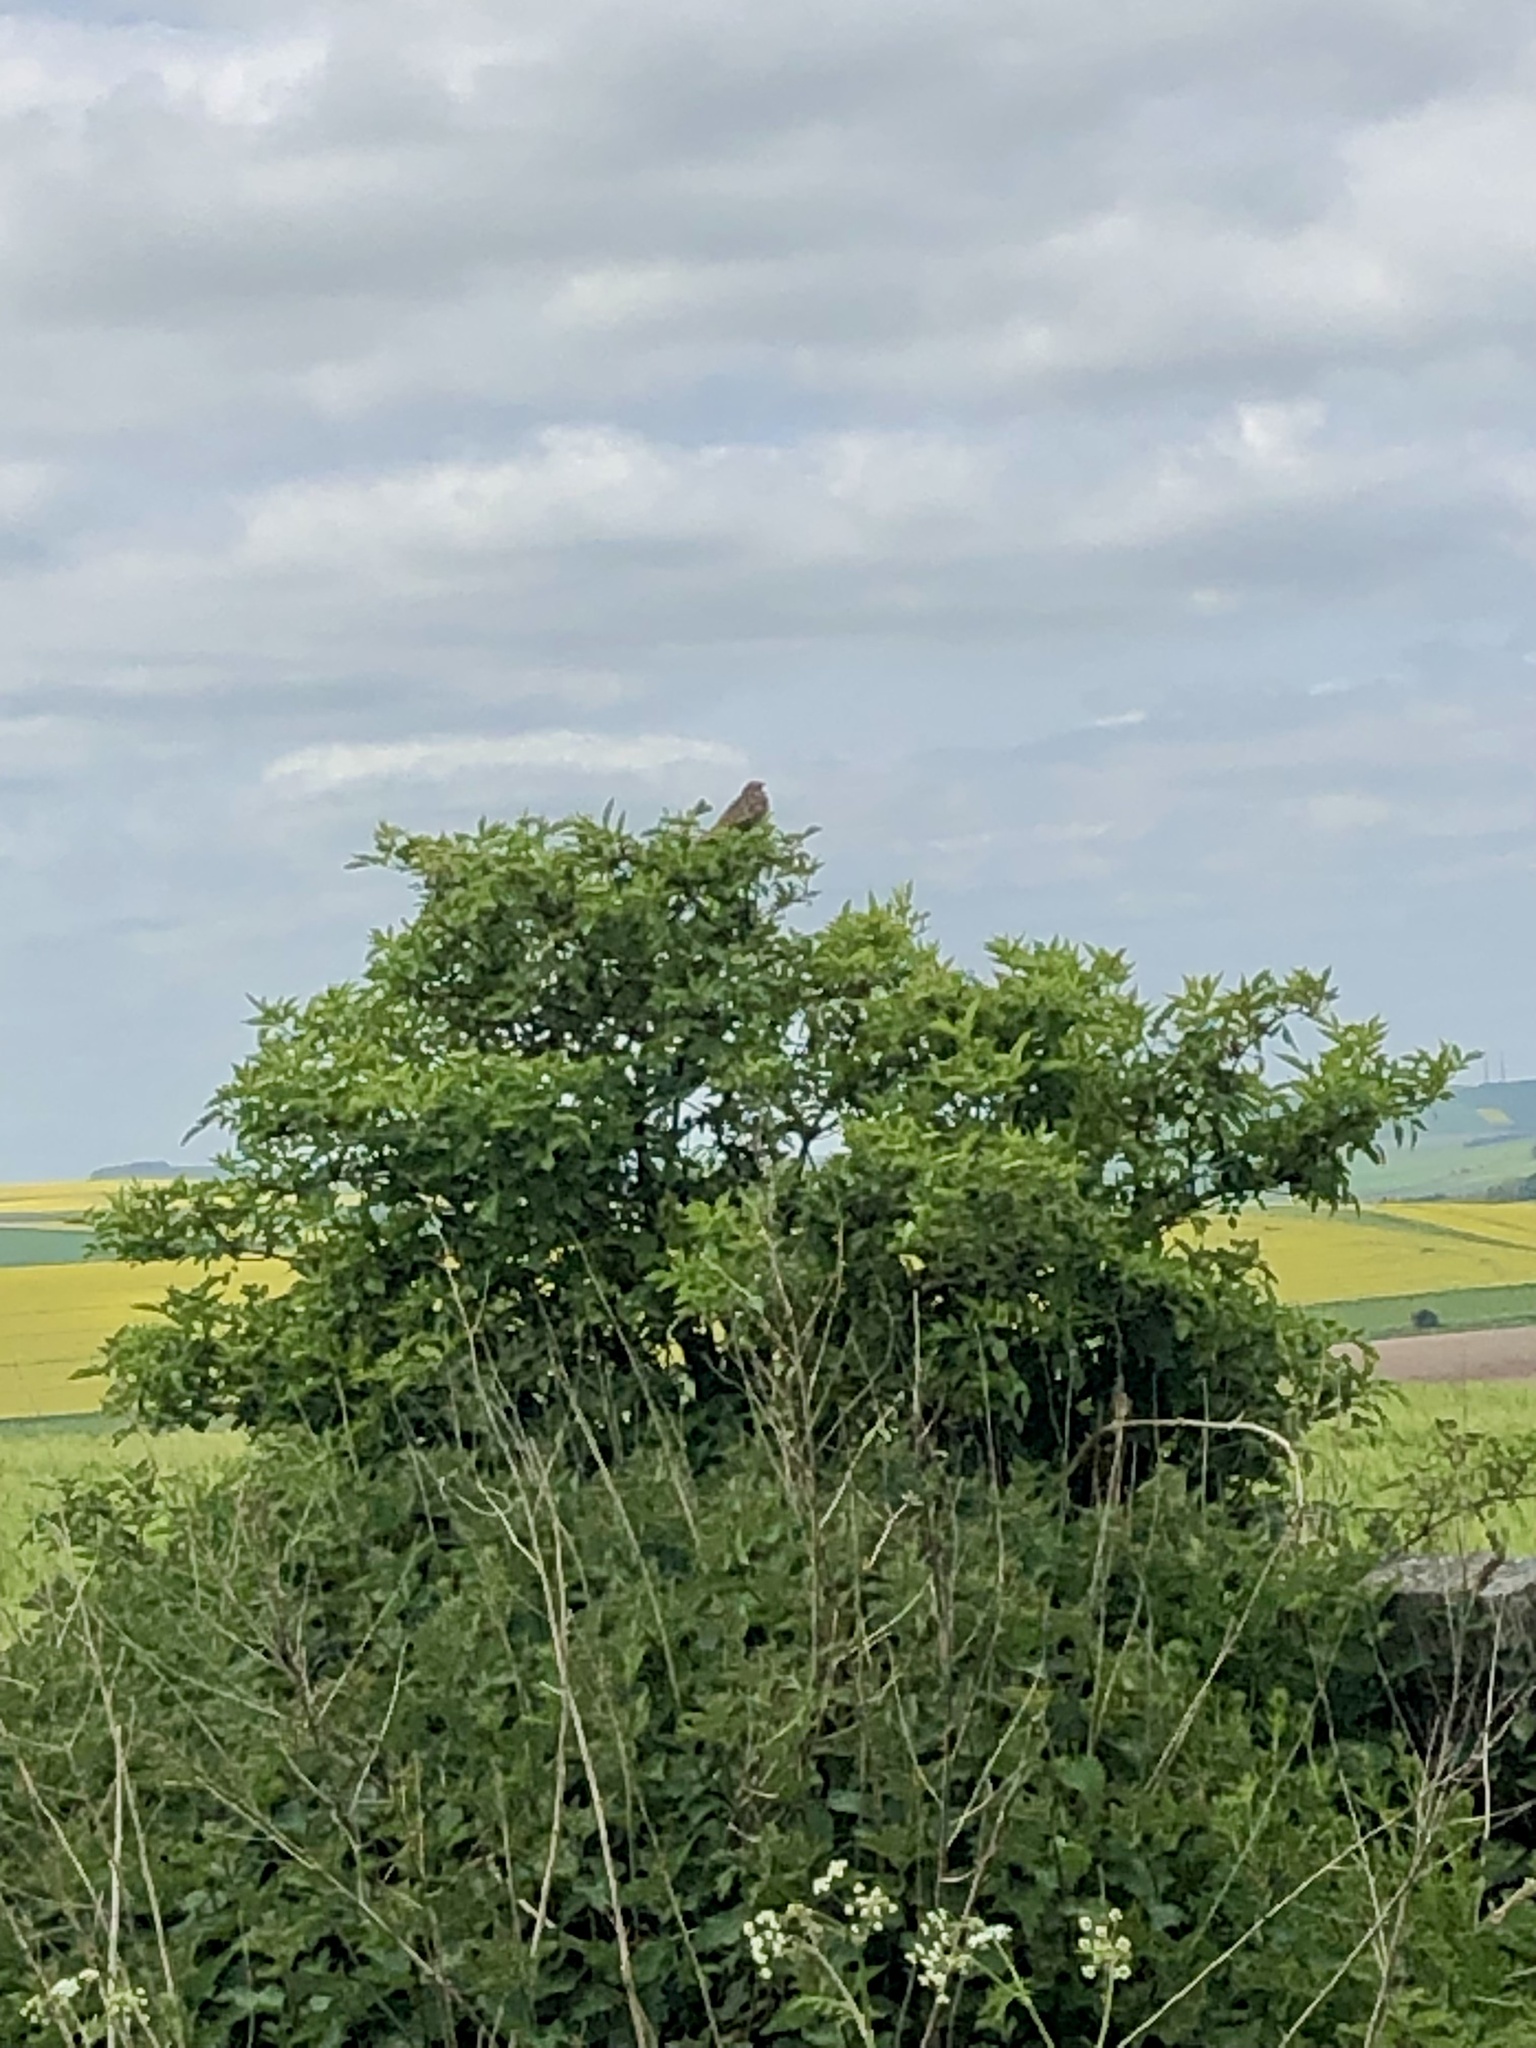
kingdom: Animalia
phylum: Chordata
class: Aves
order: Passeriformes
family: Emberizidae
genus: Emberiza
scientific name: Emberiza calandra
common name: Corn bunting
